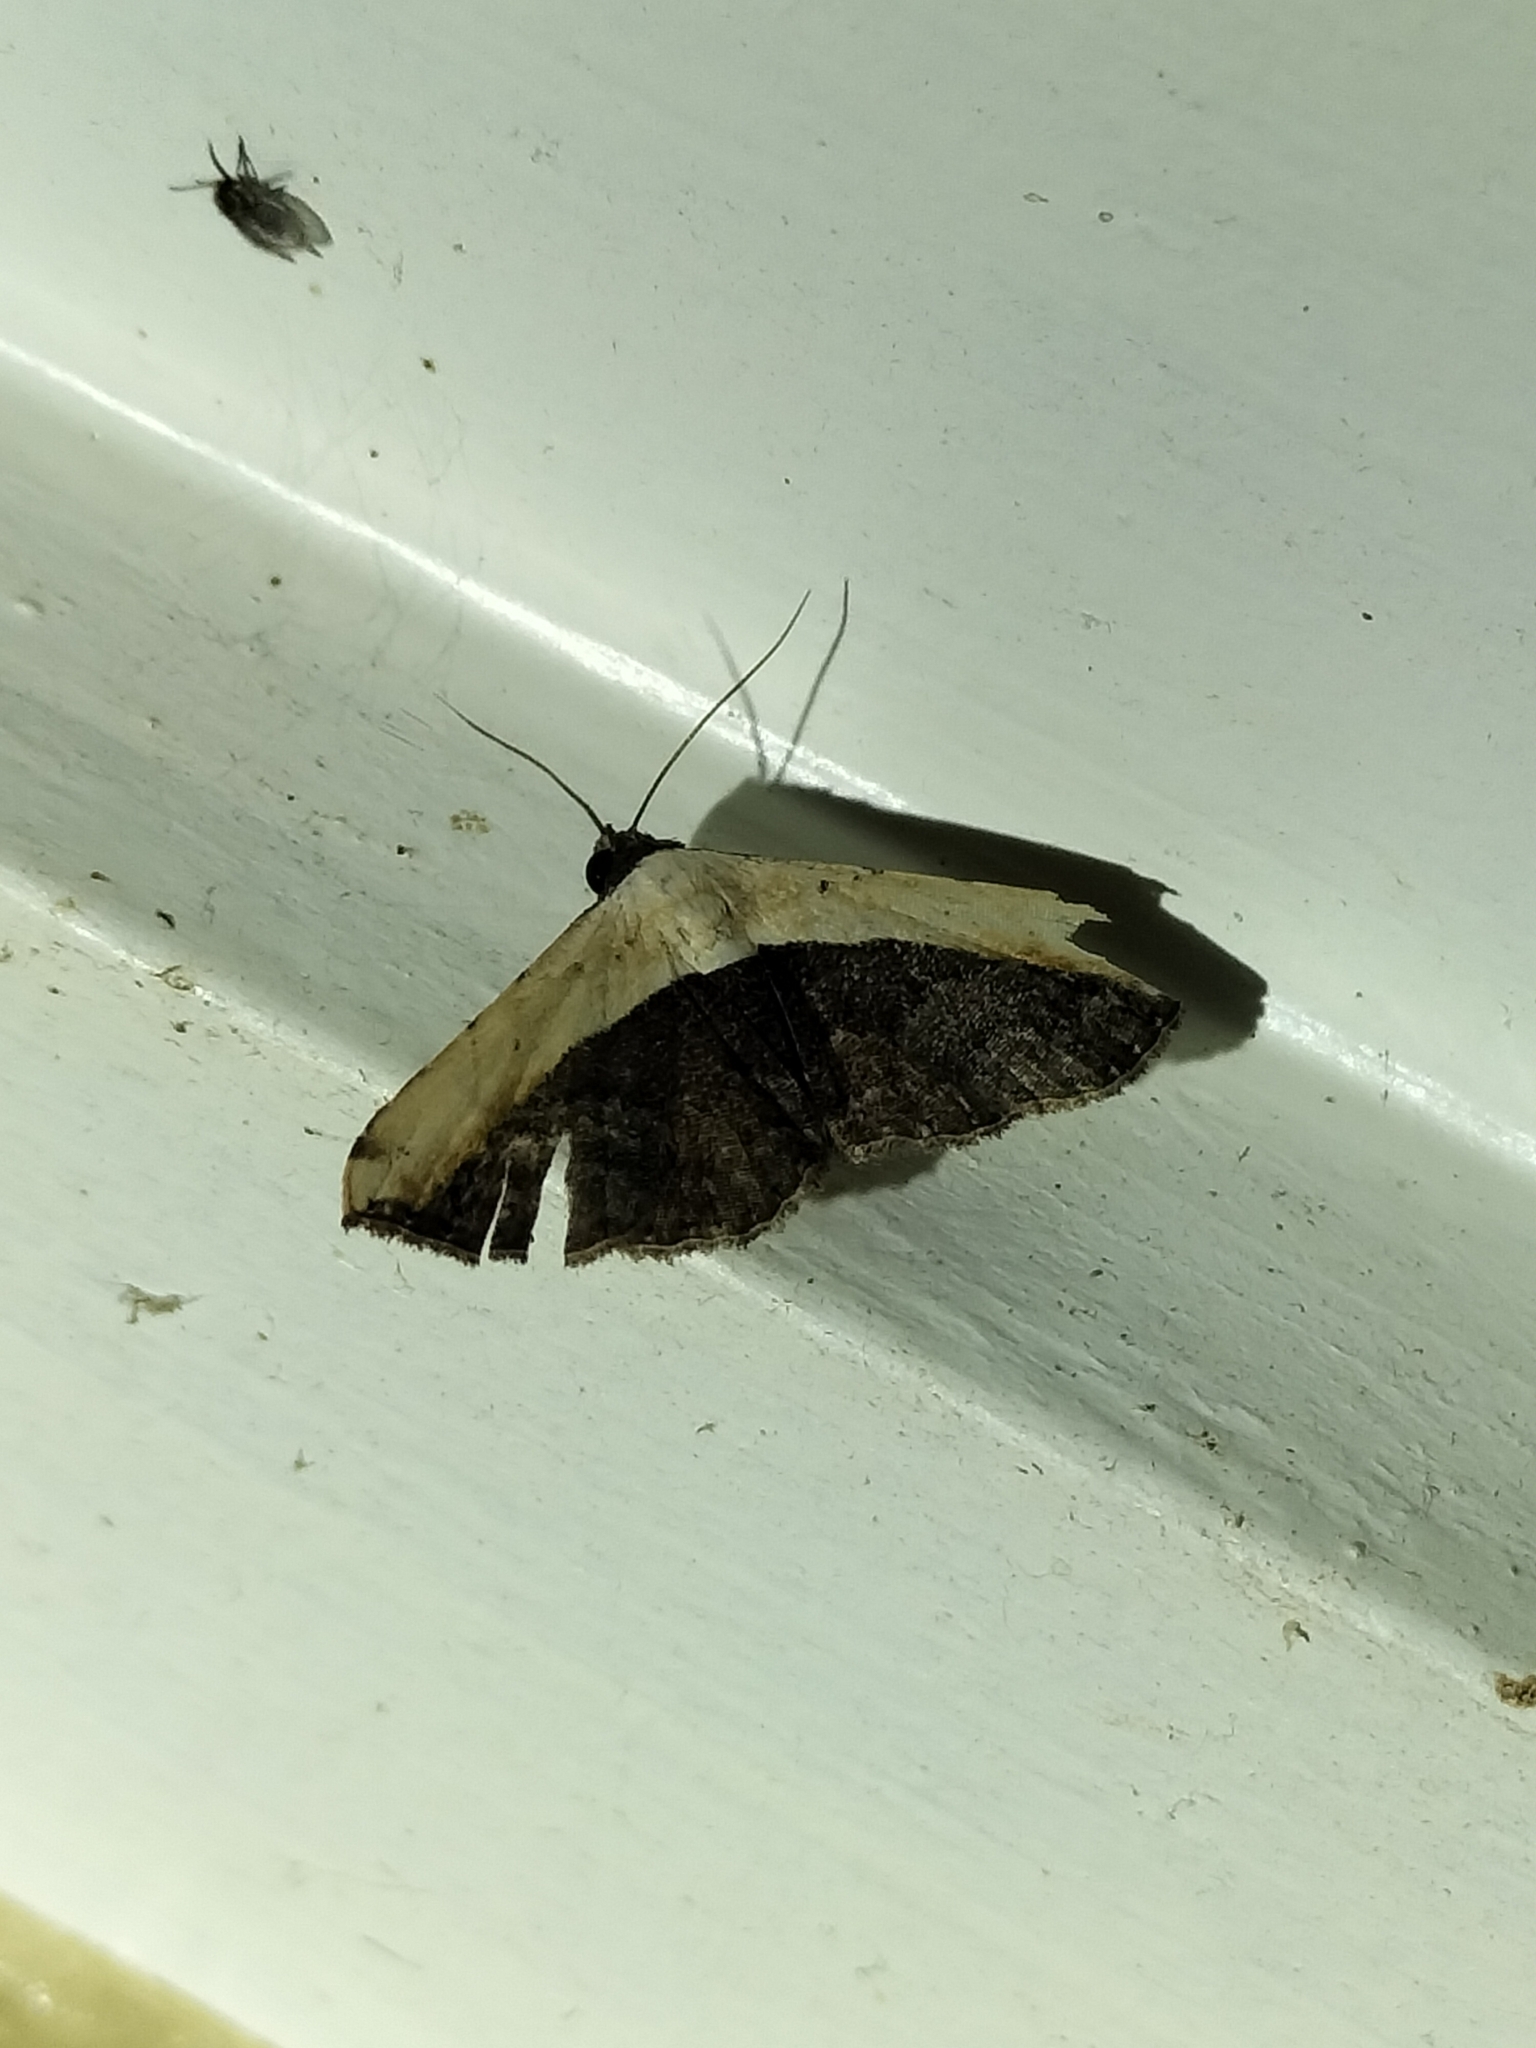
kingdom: Animalia
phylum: Arthropoda
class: Insecta
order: Lepidoptera
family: Noctuidae
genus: Ataboruza
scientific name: Ataboruza divisa
